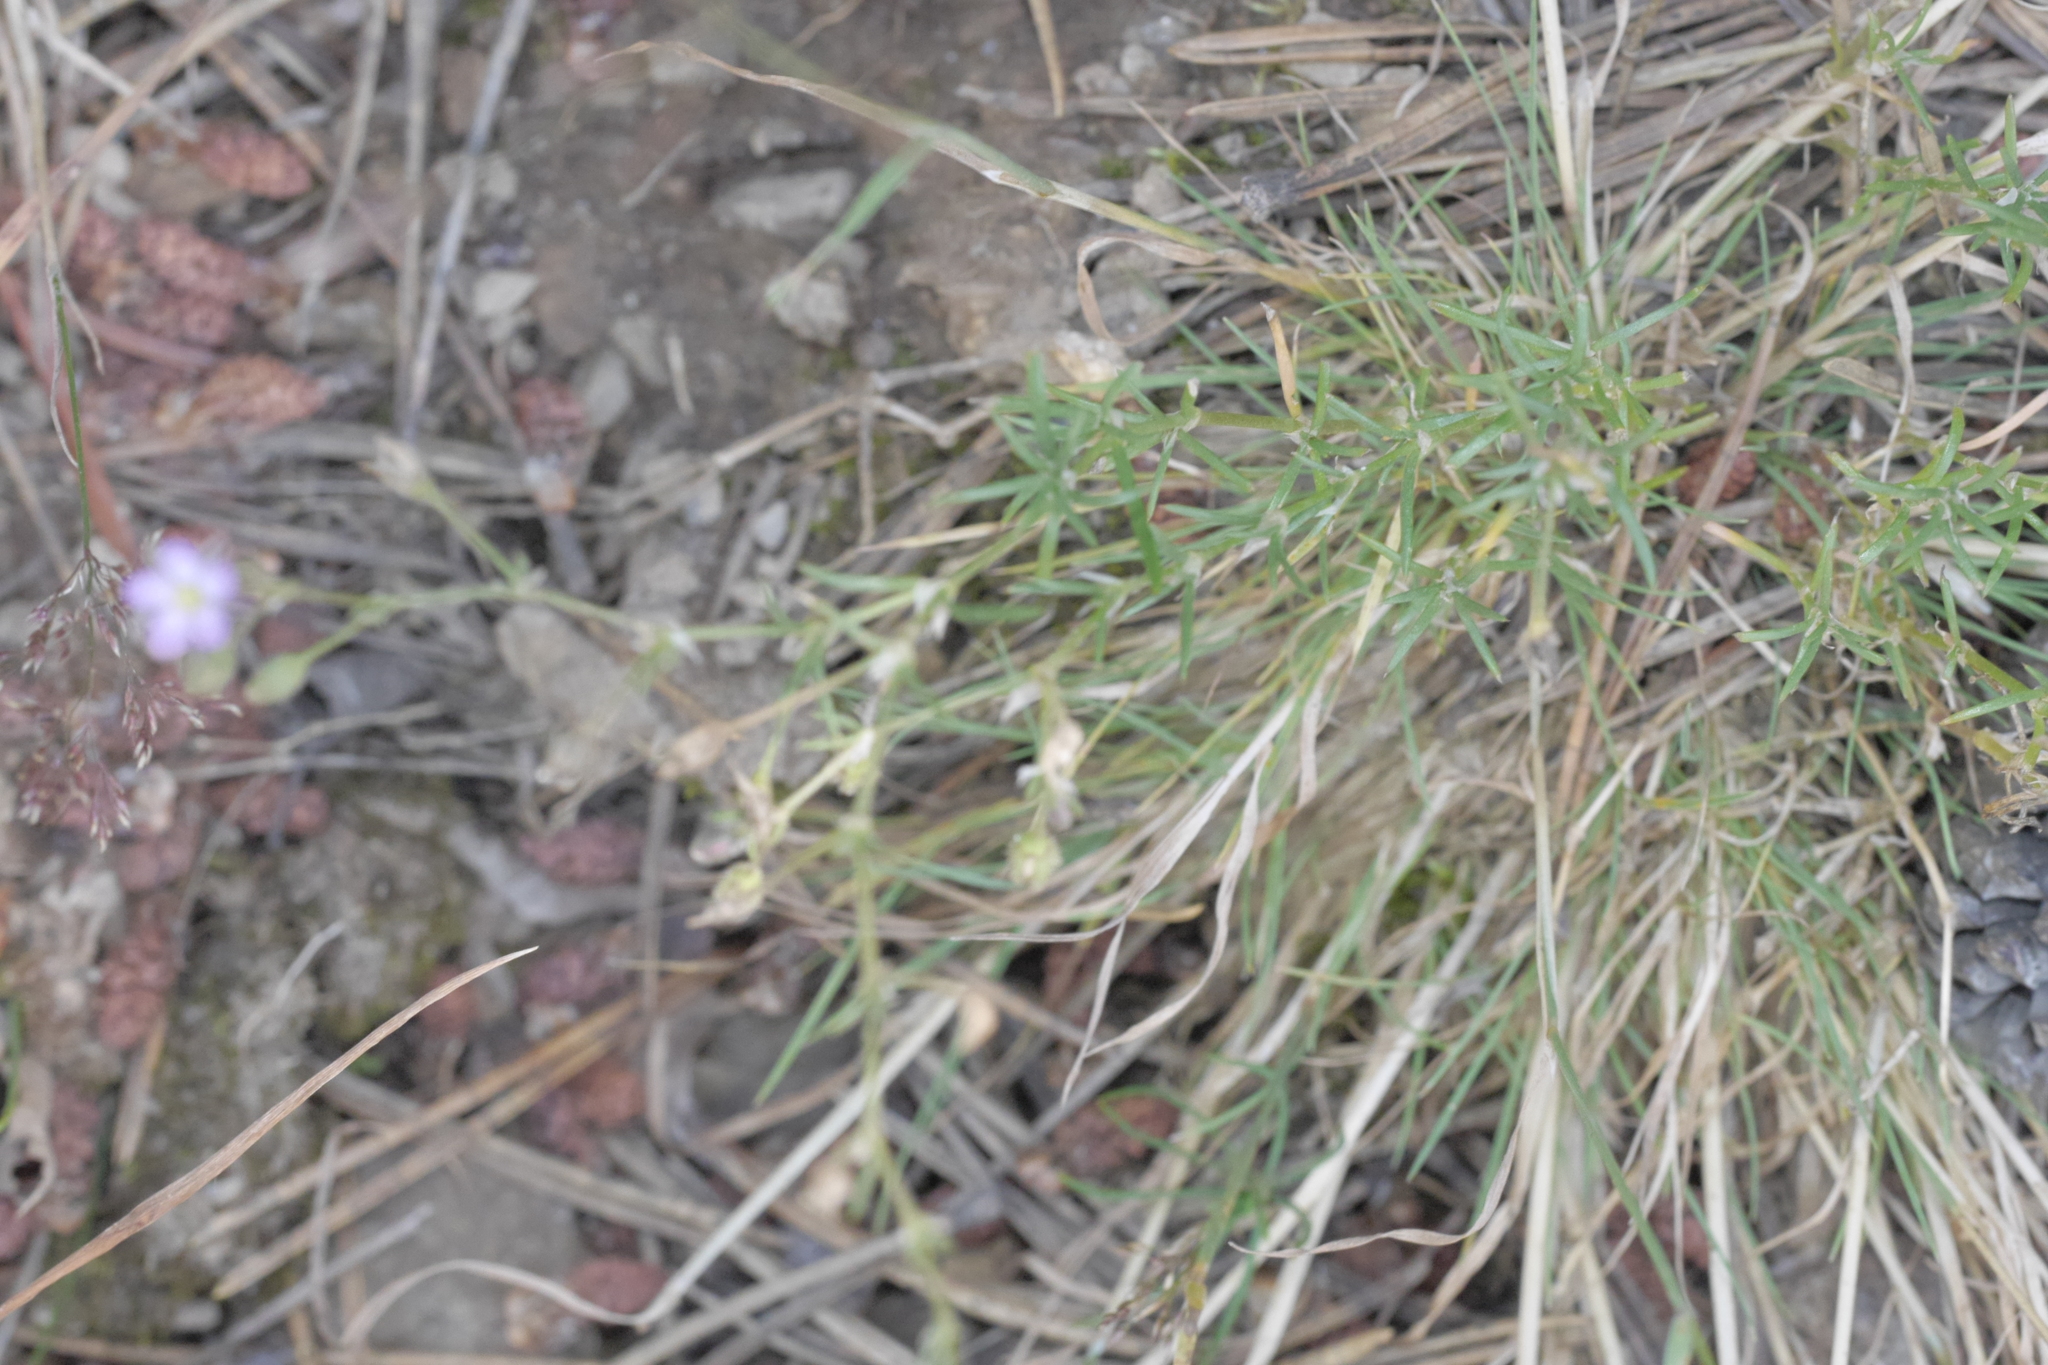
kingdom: Plantae
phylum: Tracheophyta
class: Magnoliopsida
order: Caryophyllales
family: Caryophyllaceae
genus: Spergularia
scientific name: Spergularia rubra
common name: Red sand-spurrey
